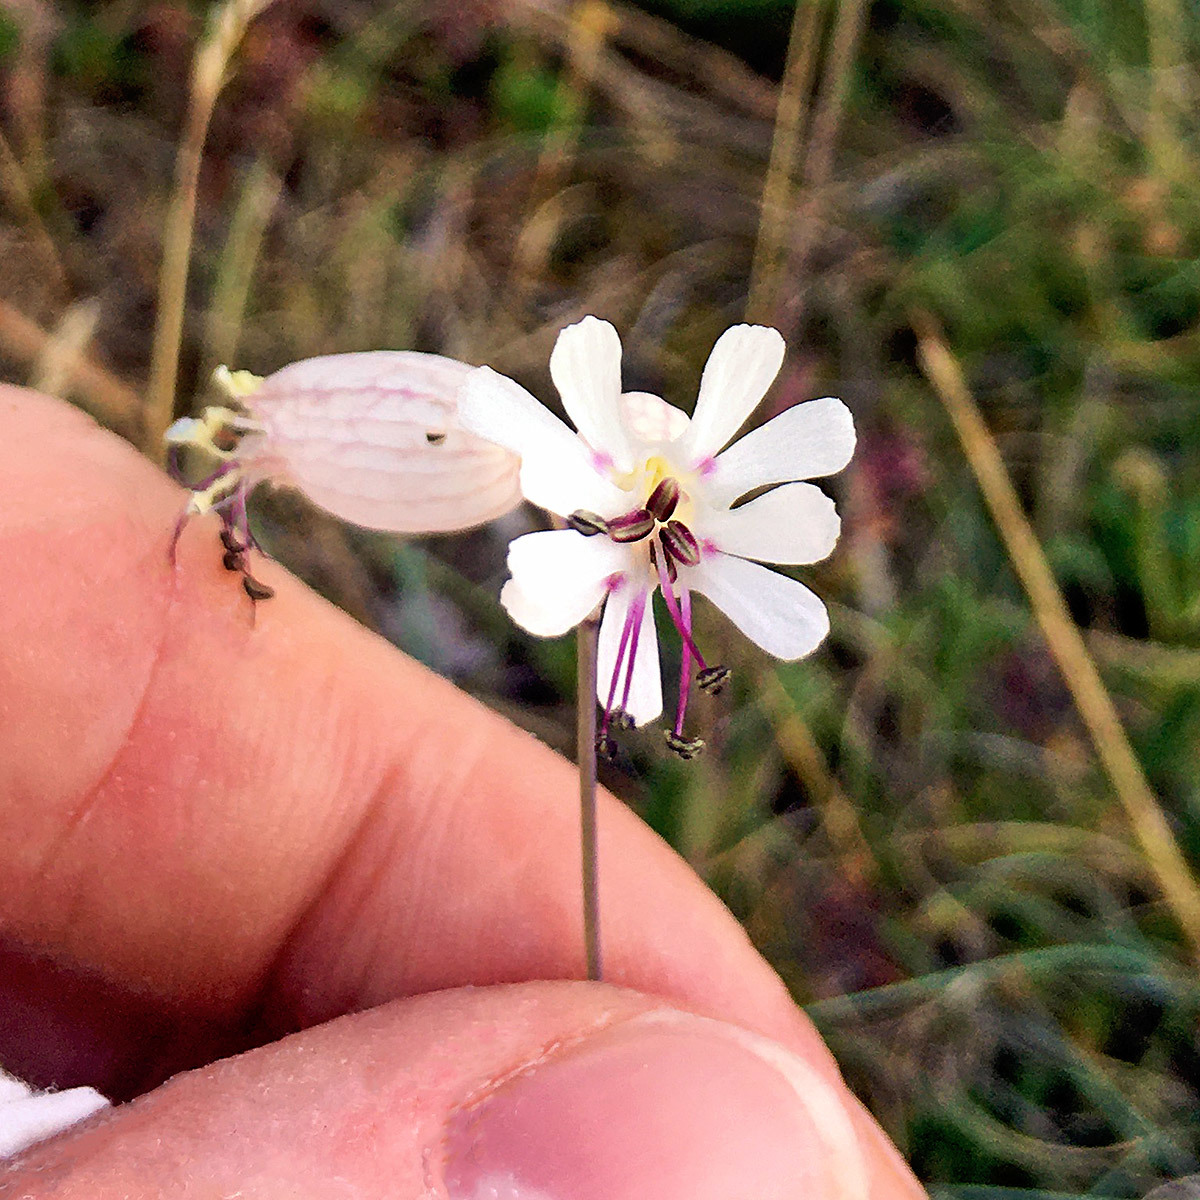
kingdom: Plantae
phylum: Tracheophyta
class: Magnoliopsida
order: Caryophyllales
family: Caryophyllaceae
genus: Silene
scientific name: Silene vulgaris
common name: Bladder campion
